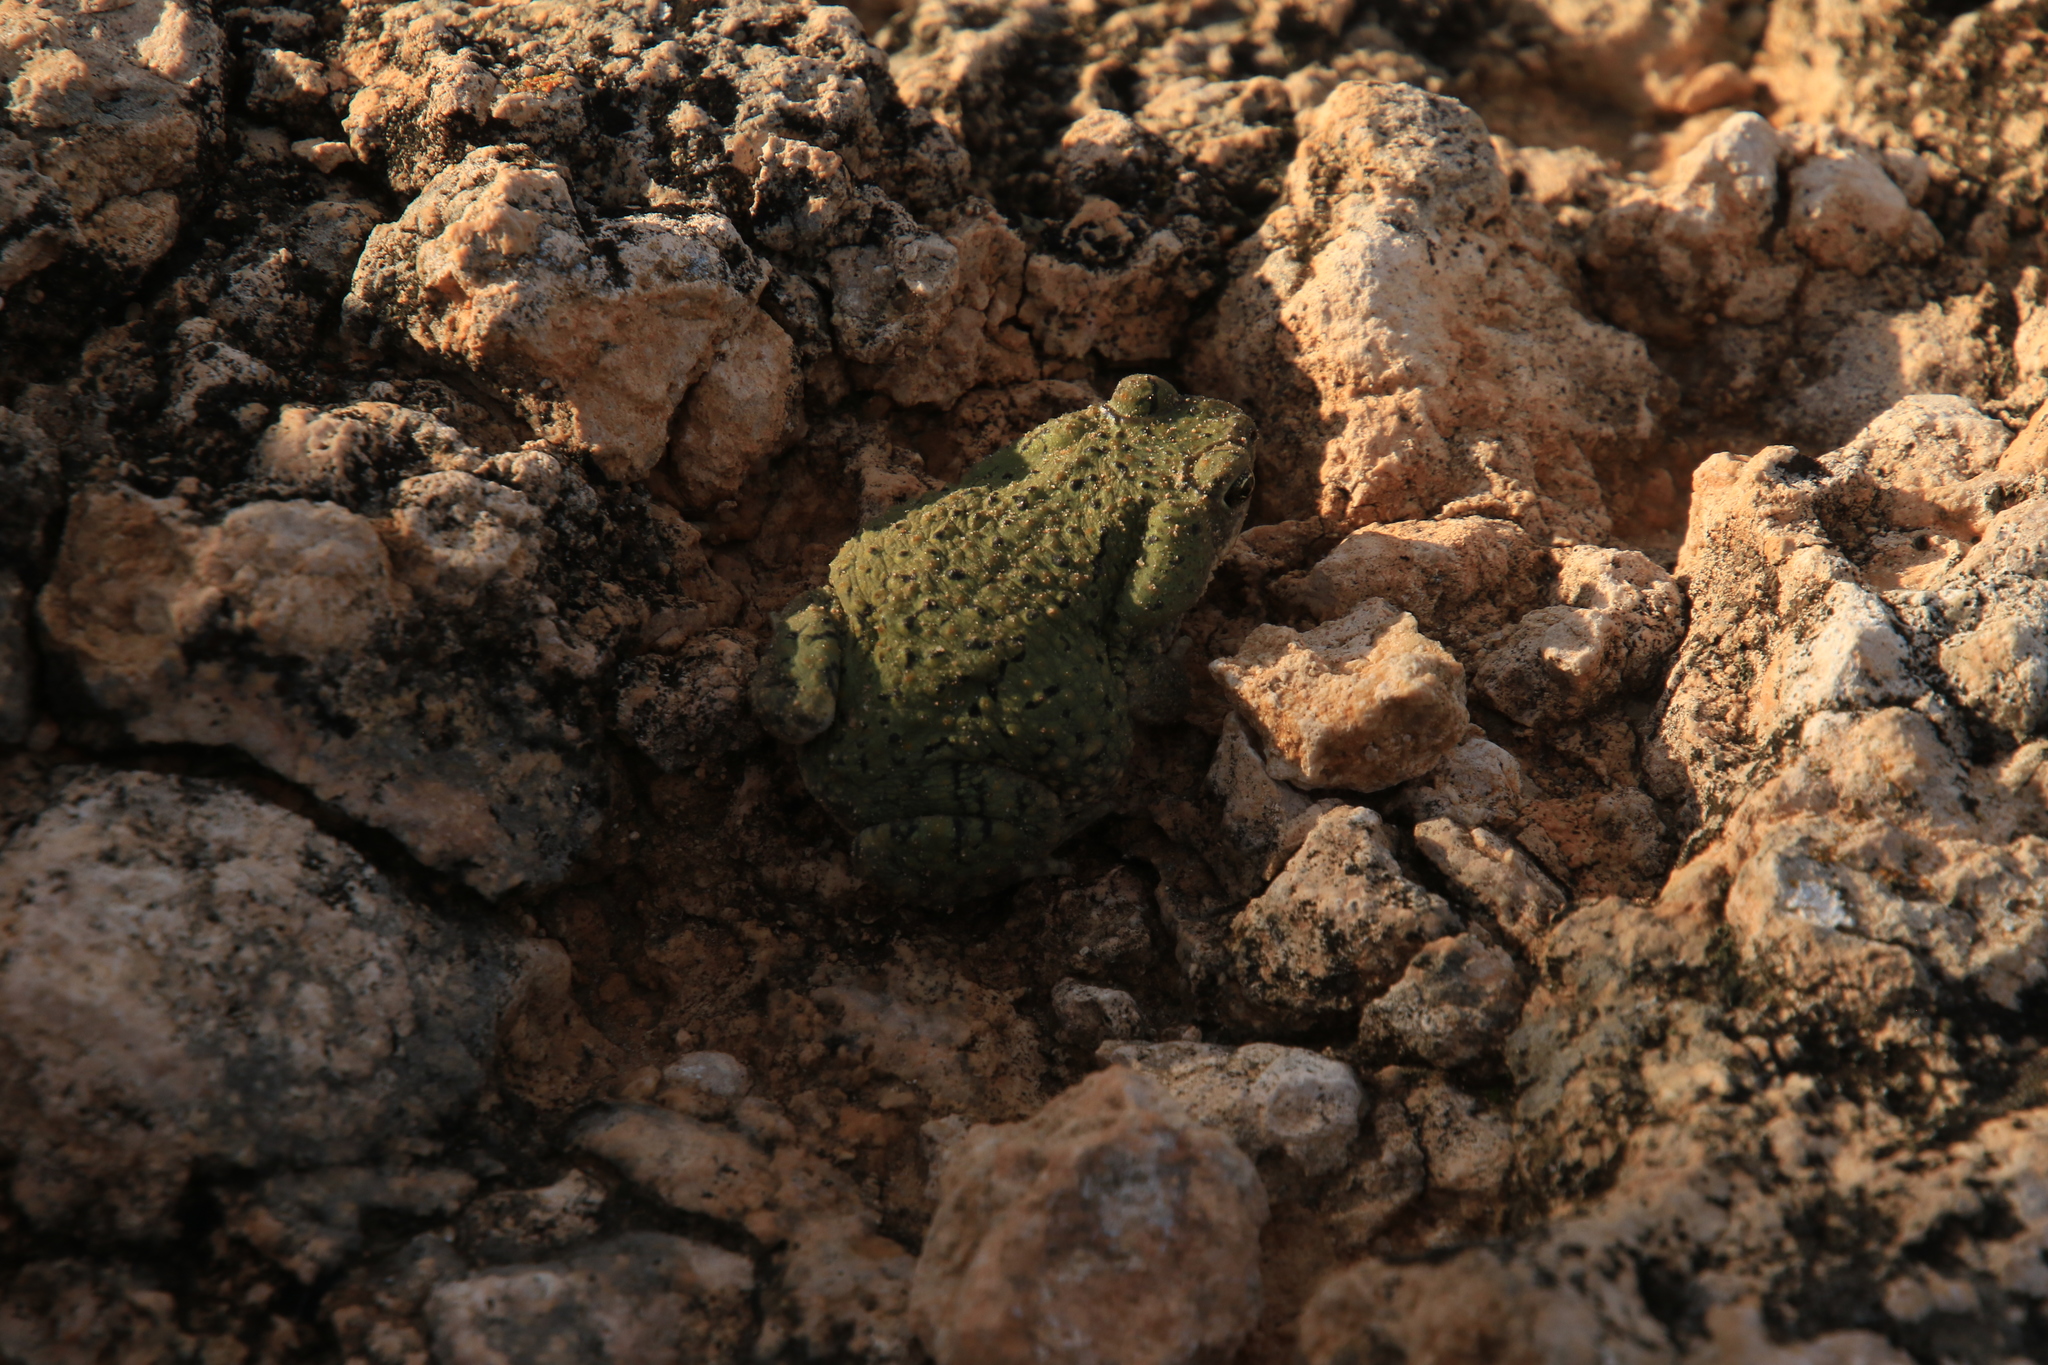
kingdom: Animalia
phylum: Chordata
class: Amphibia
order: Anura
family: Bufonidae
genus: Anaxyrus
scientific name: Anaxyrus debilis
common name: Green toad
